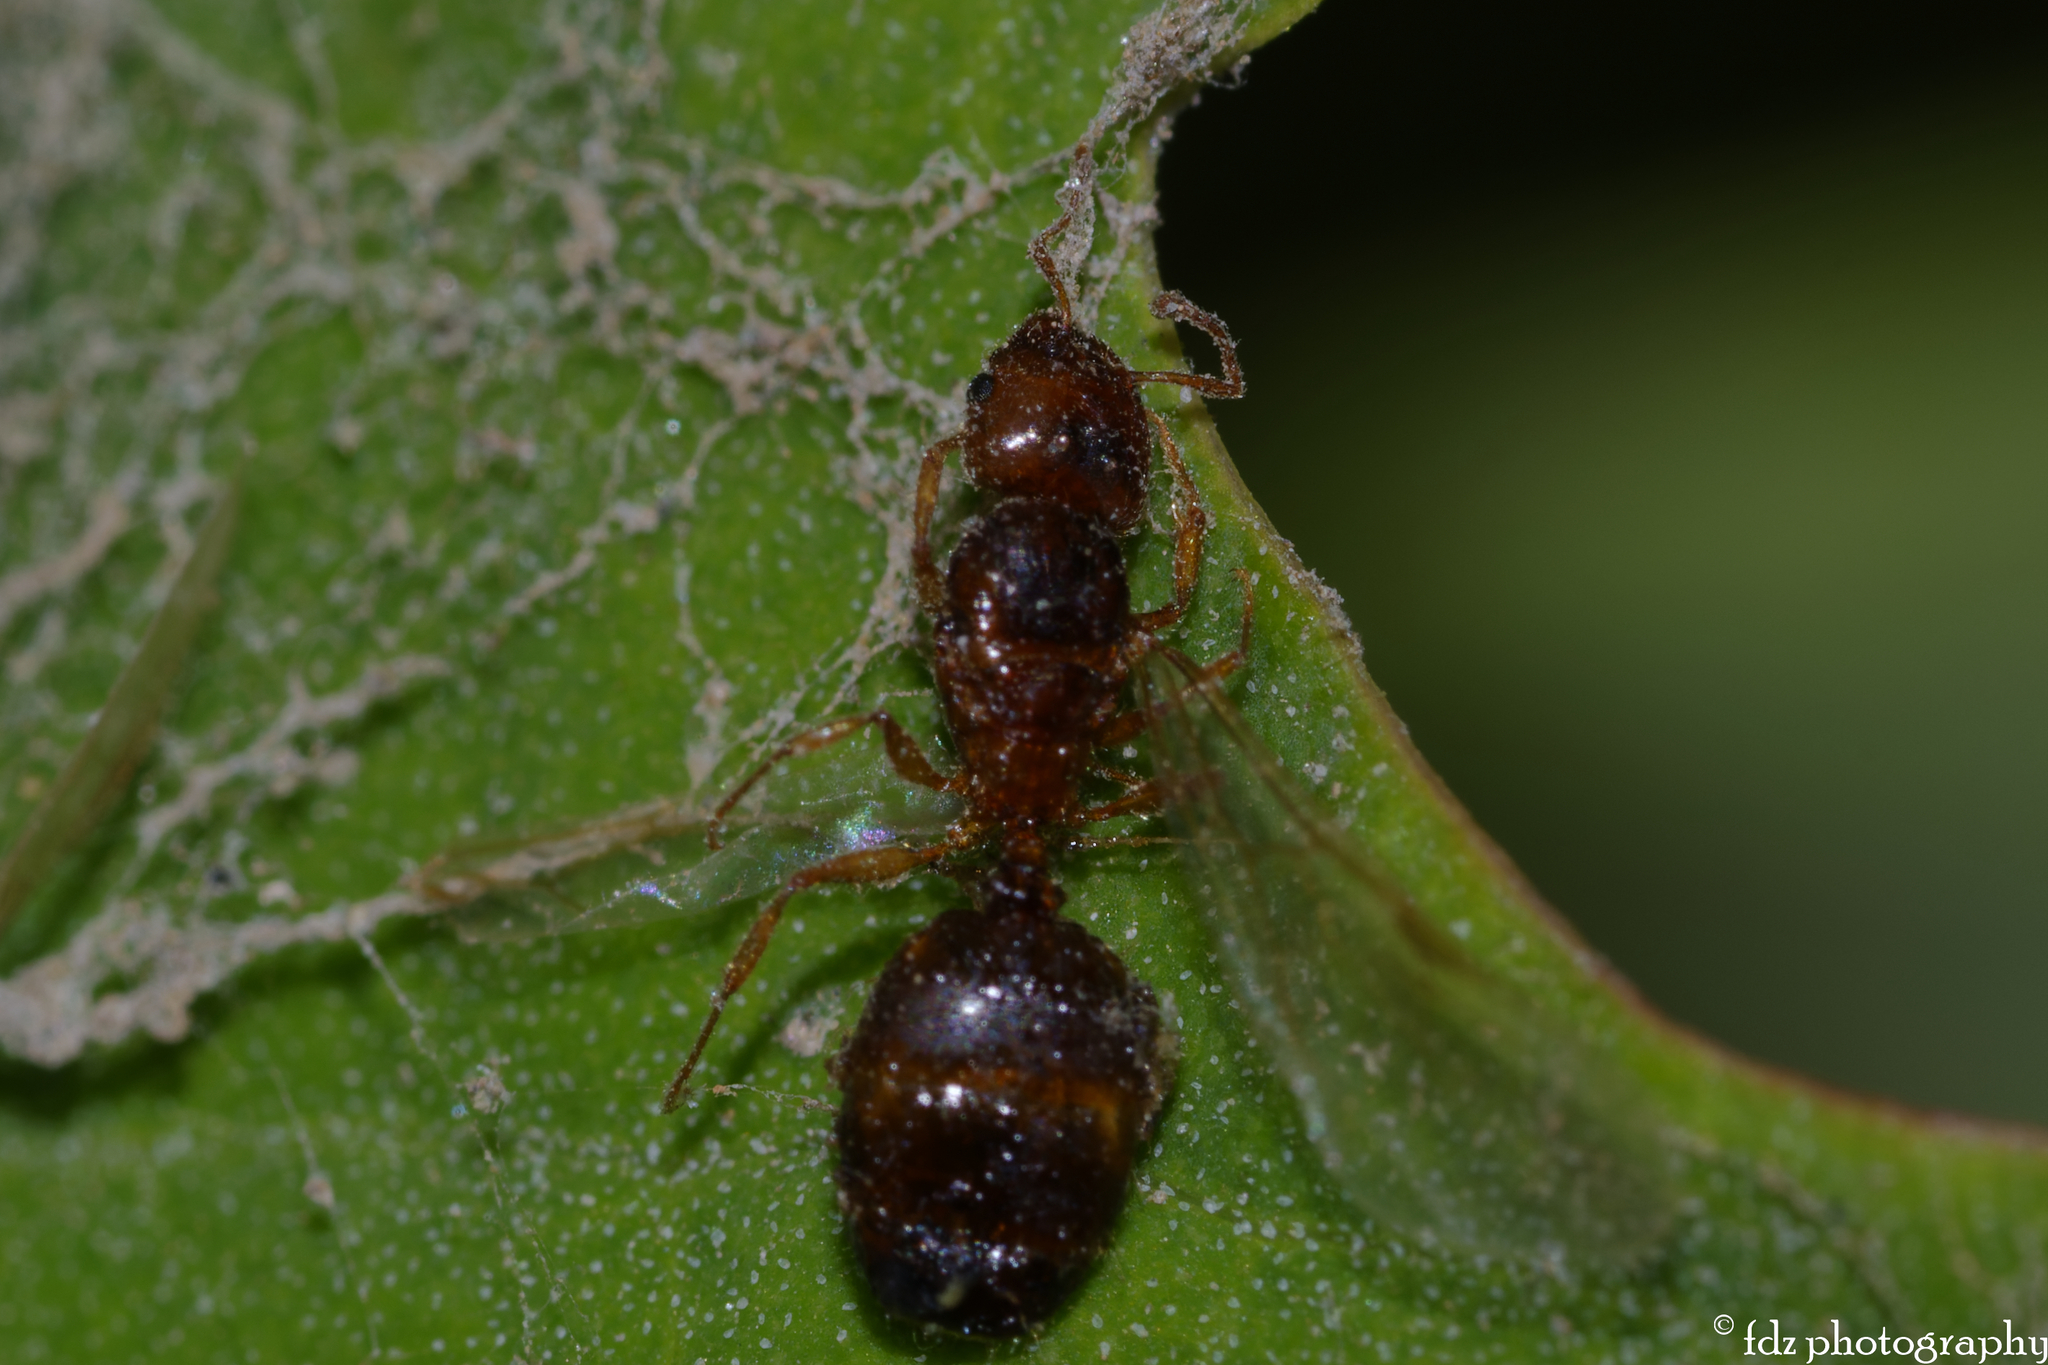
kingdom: Animalia
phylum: Arthropoda
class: Insecta
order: Hymenoptera
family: Formicidae
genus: Pheidole
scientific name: Pheidole pallidula
